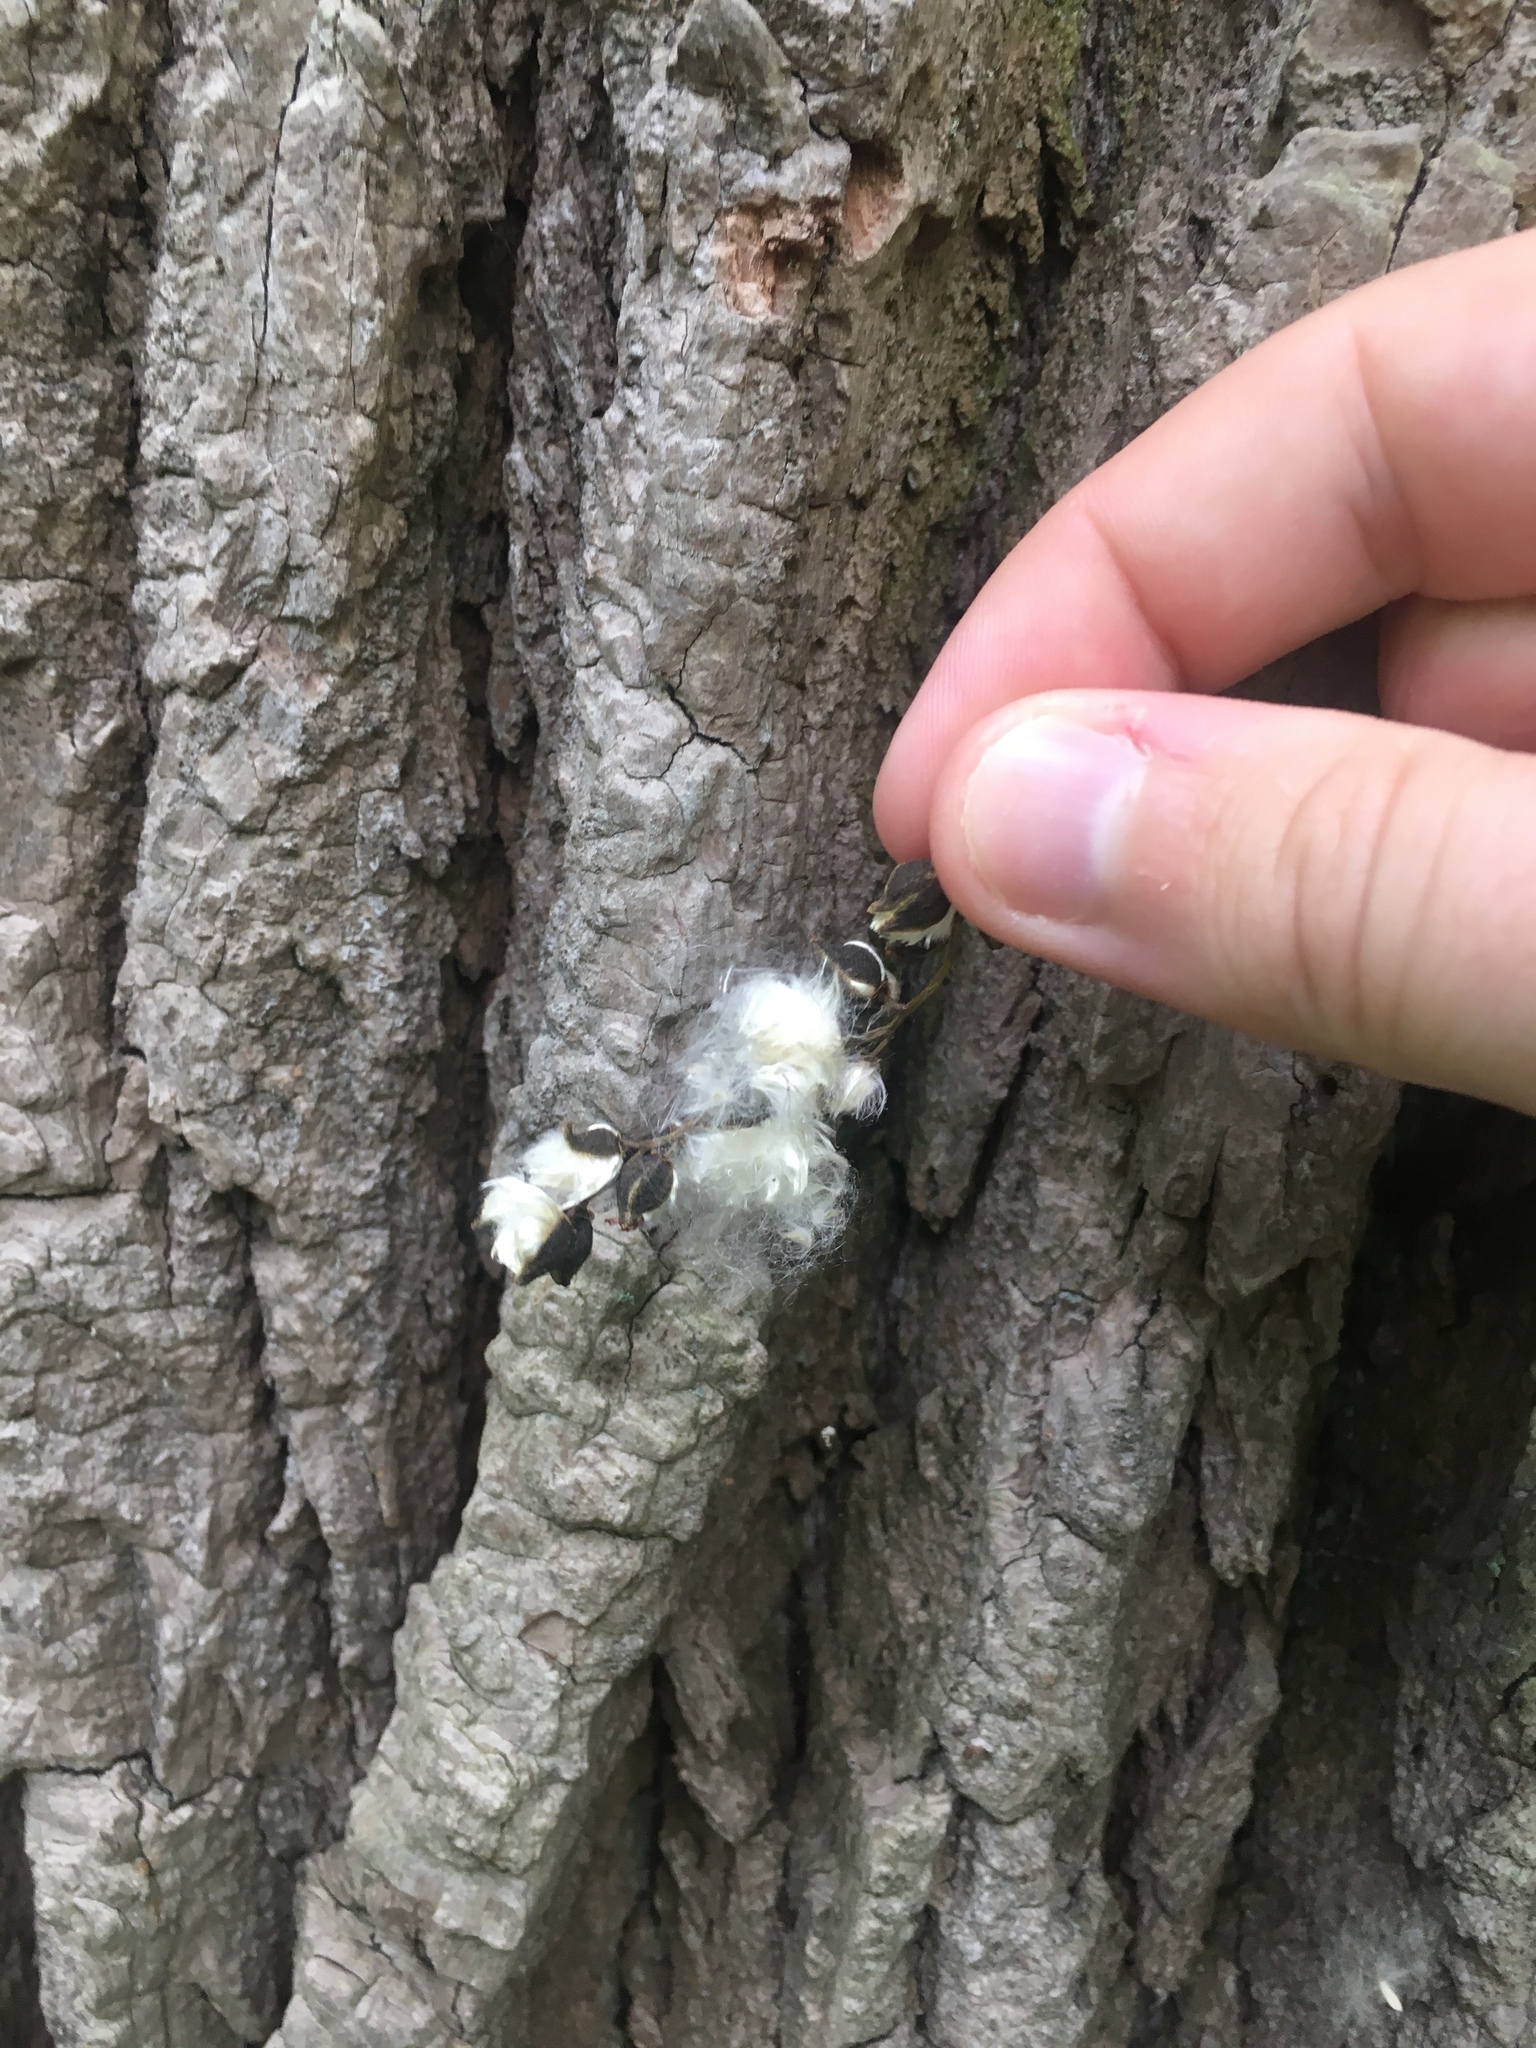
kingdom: Plantae
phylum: Tracheophyta
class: Magnoliopsida
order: Malpighiales
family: Salicaceae
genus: Populus
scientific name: Populus deltoides
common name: Eastern cottonwood
